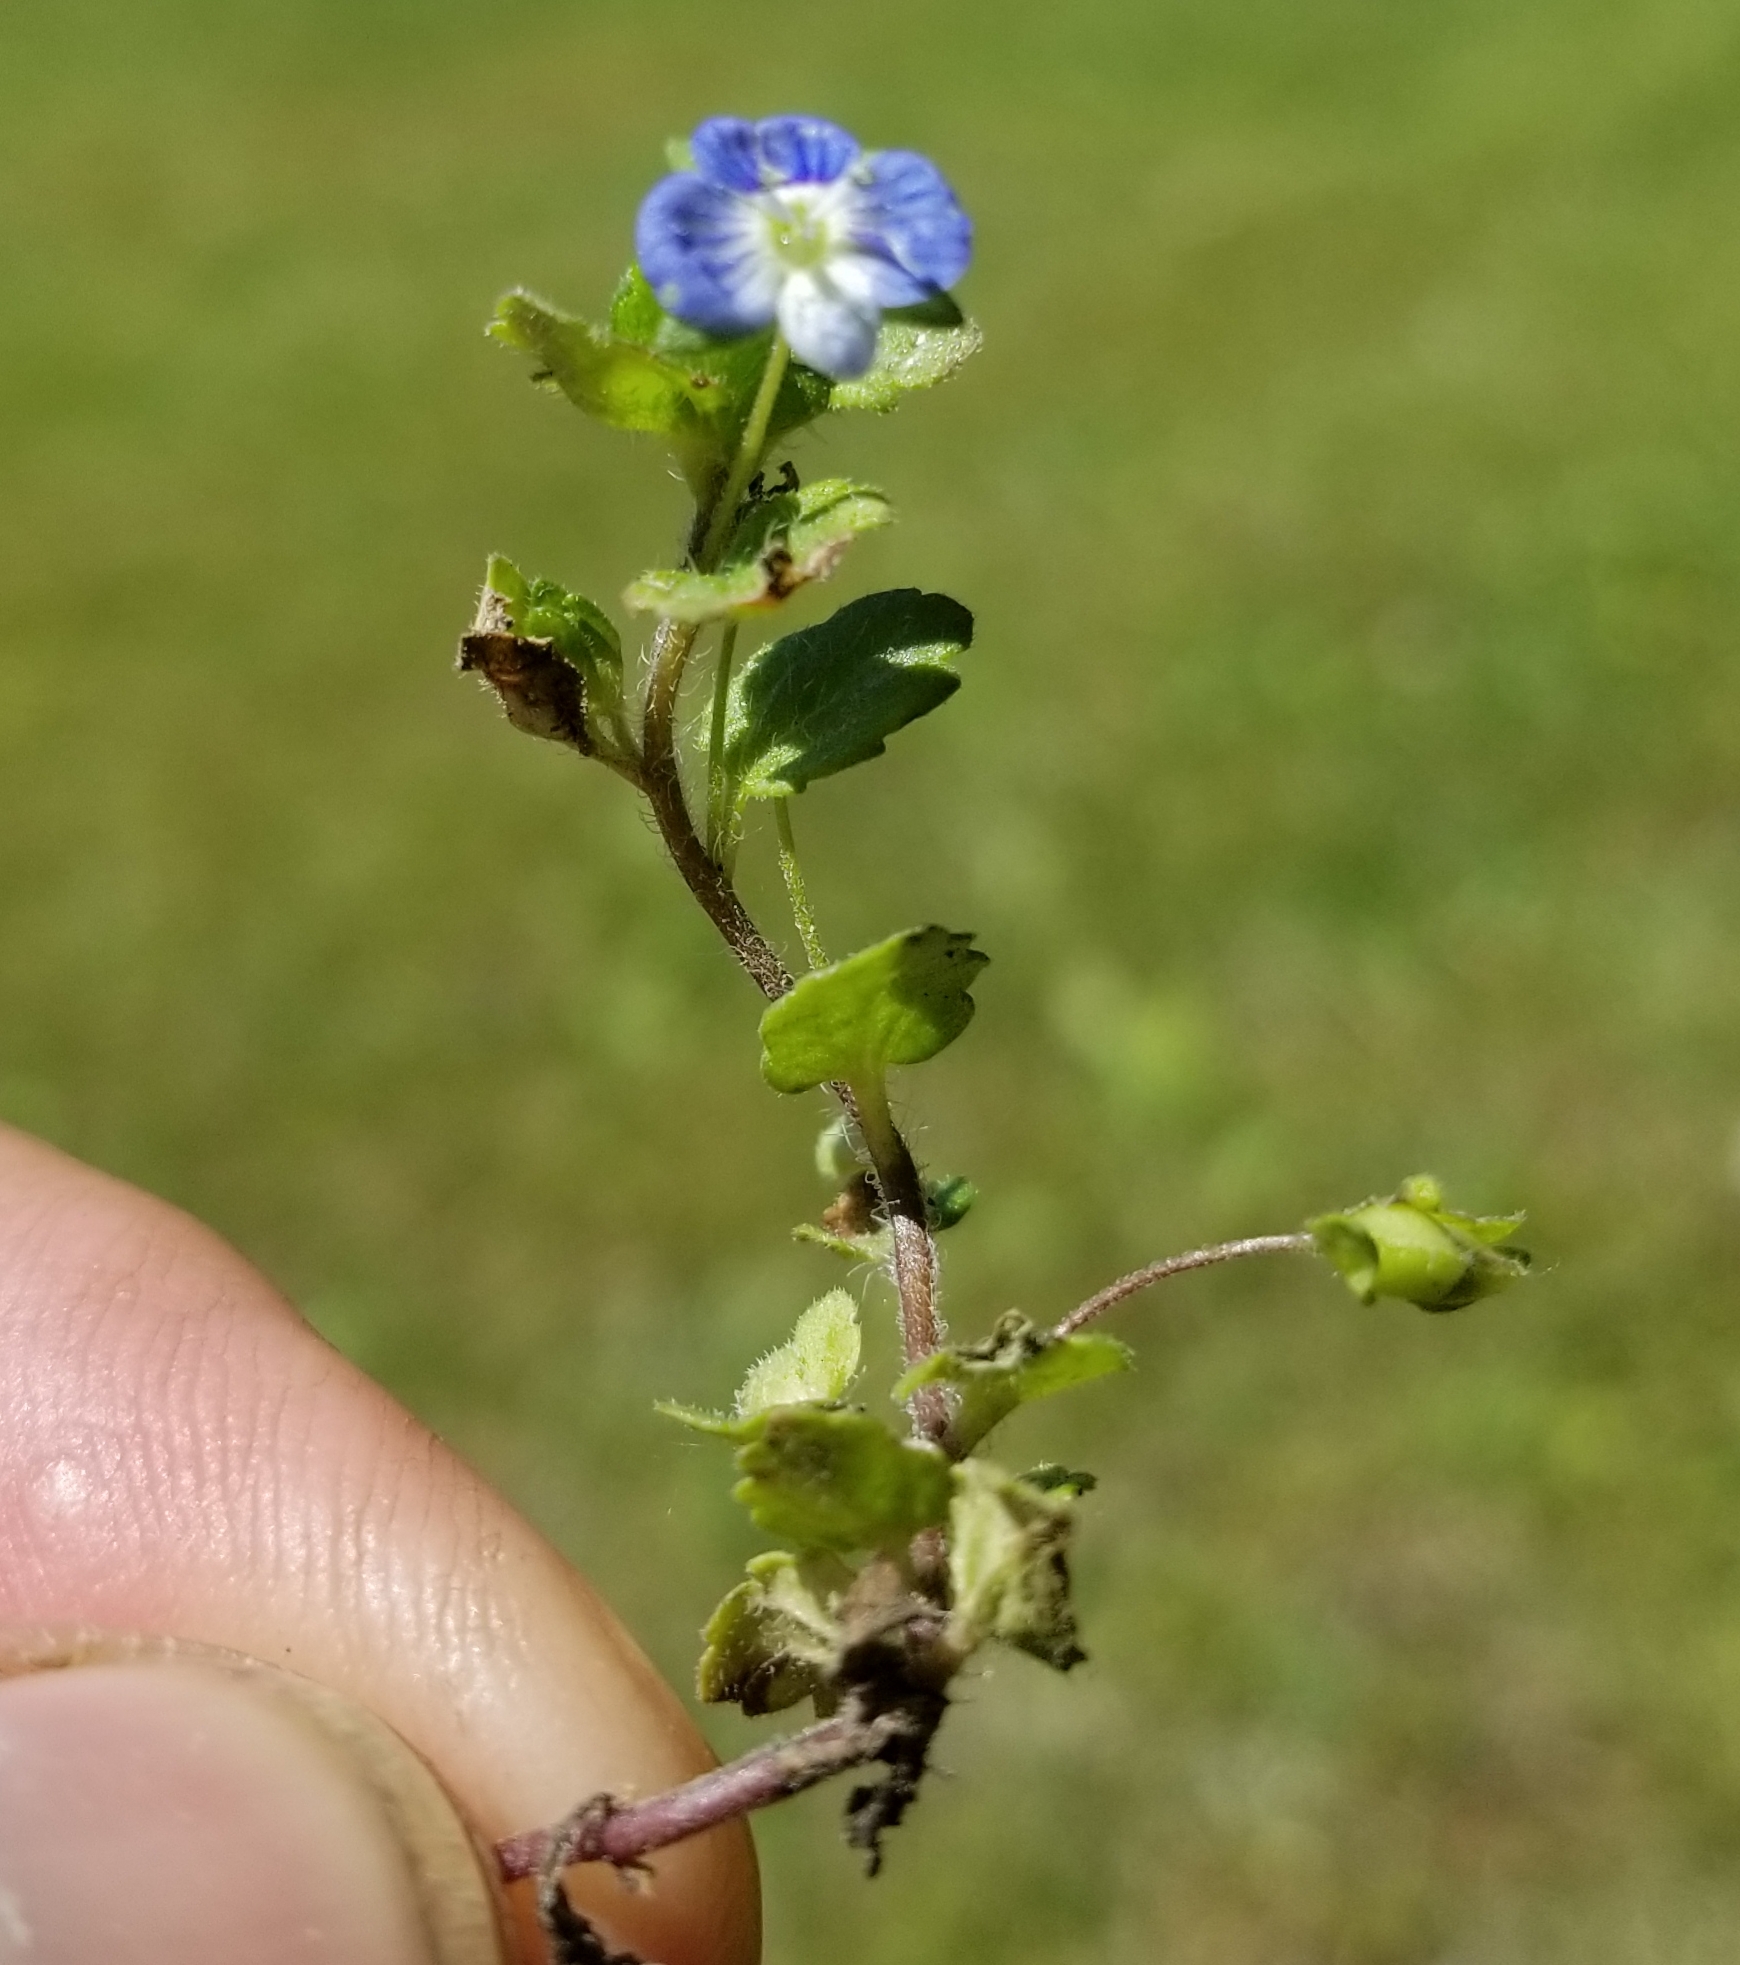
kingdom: Plantae
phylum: Tracheophyta
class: Magnoliopsida
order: Lamiales
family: Plantaginaceae
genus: Veronica
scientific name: Veronica persica
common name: Common field-speedwell
